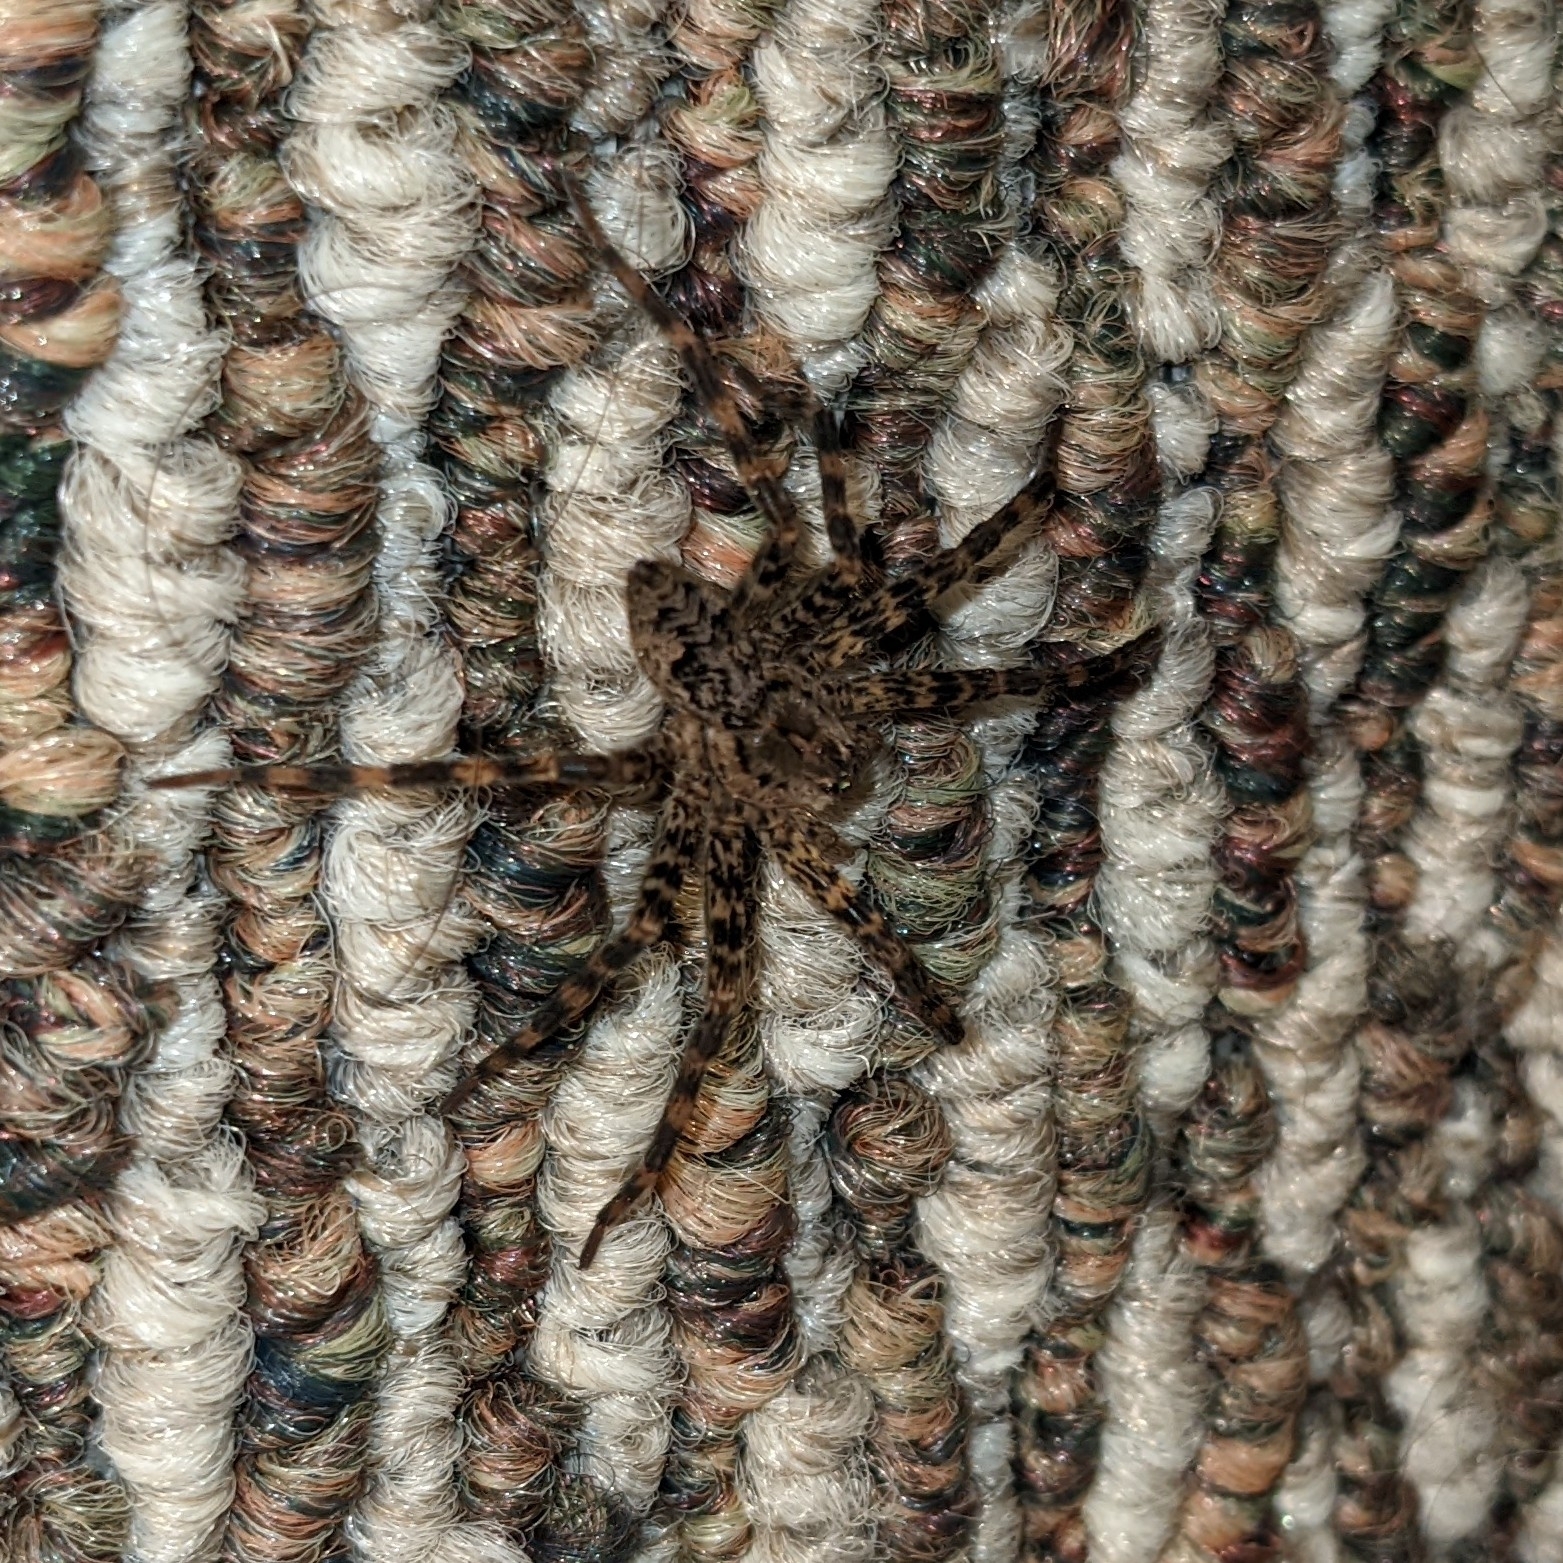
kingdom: Animalia
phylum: Arthropoda
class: Arachnida
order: Araneae
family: Pisauridae
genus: Dolomedes
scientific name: Dolomedes tenebrosus
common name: Dark fishing spider
